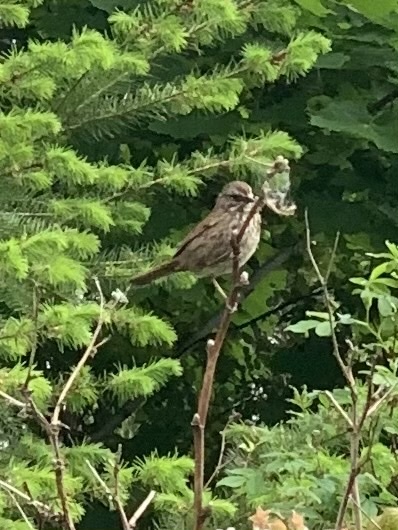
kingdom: Animalia
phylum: Chordata
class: Aves
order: Passeriformes
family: Passerellidae
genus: Melospiza
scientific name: Melospiza melodia
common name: Song sparrow
